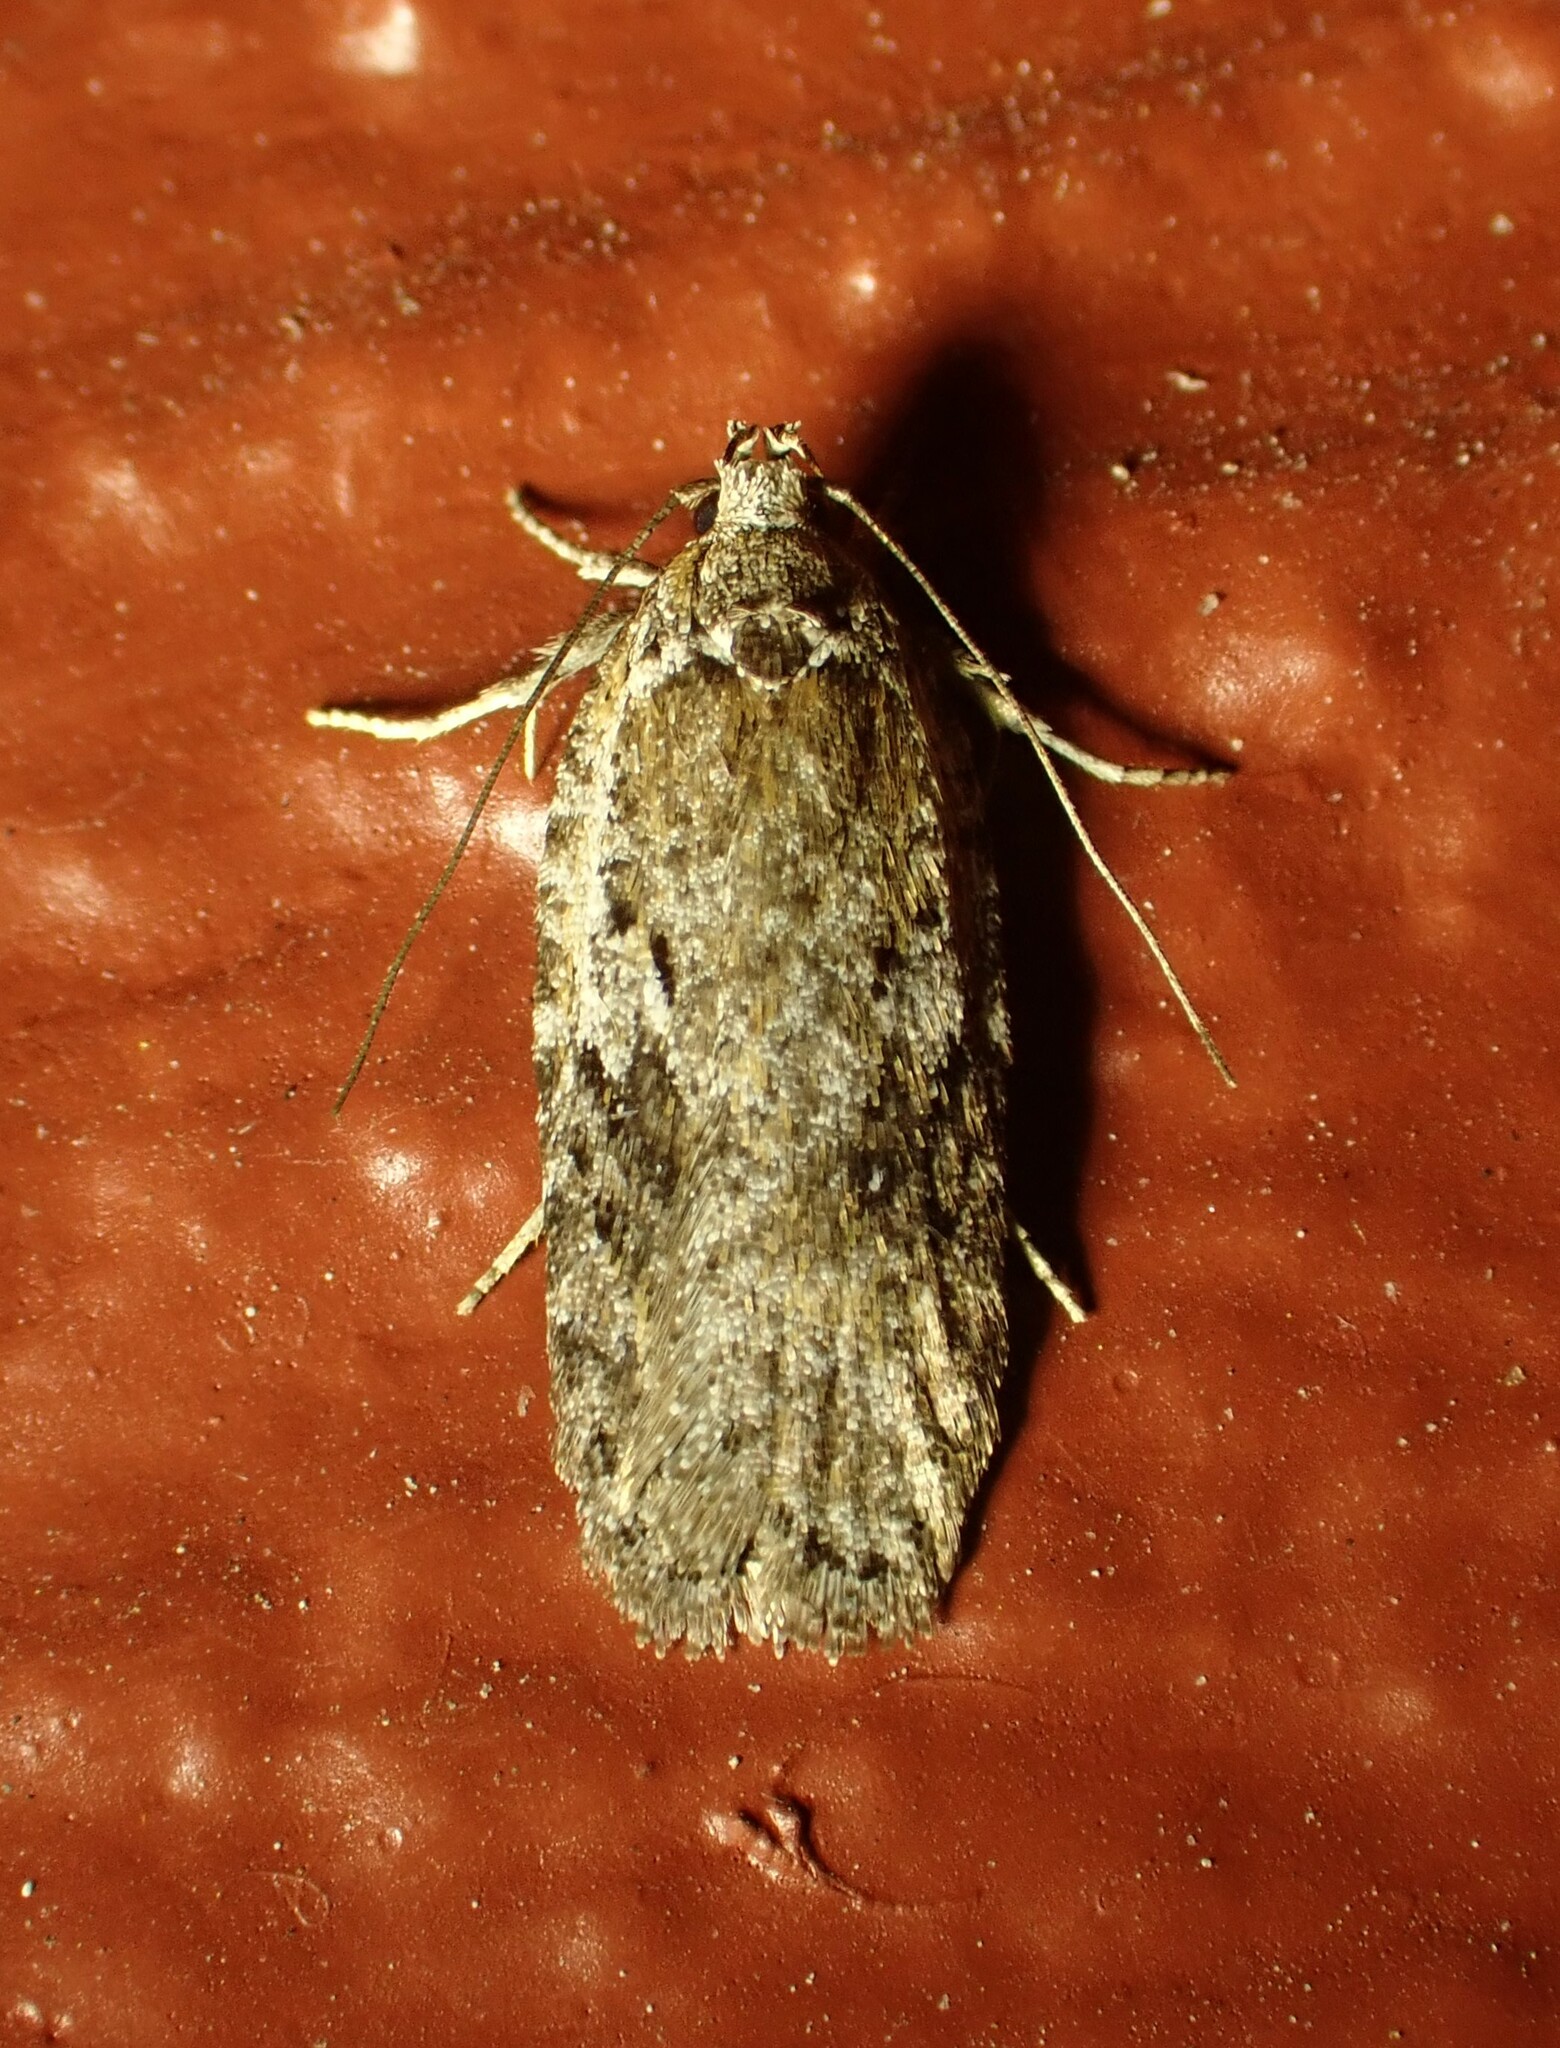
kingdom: Animalia
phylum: Arthropoda
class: Insecta
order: Lepidoptera
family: Depressariidae
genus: Exaeretia
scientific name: Exaeretia ciniflonella
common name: Scotch flat-body
